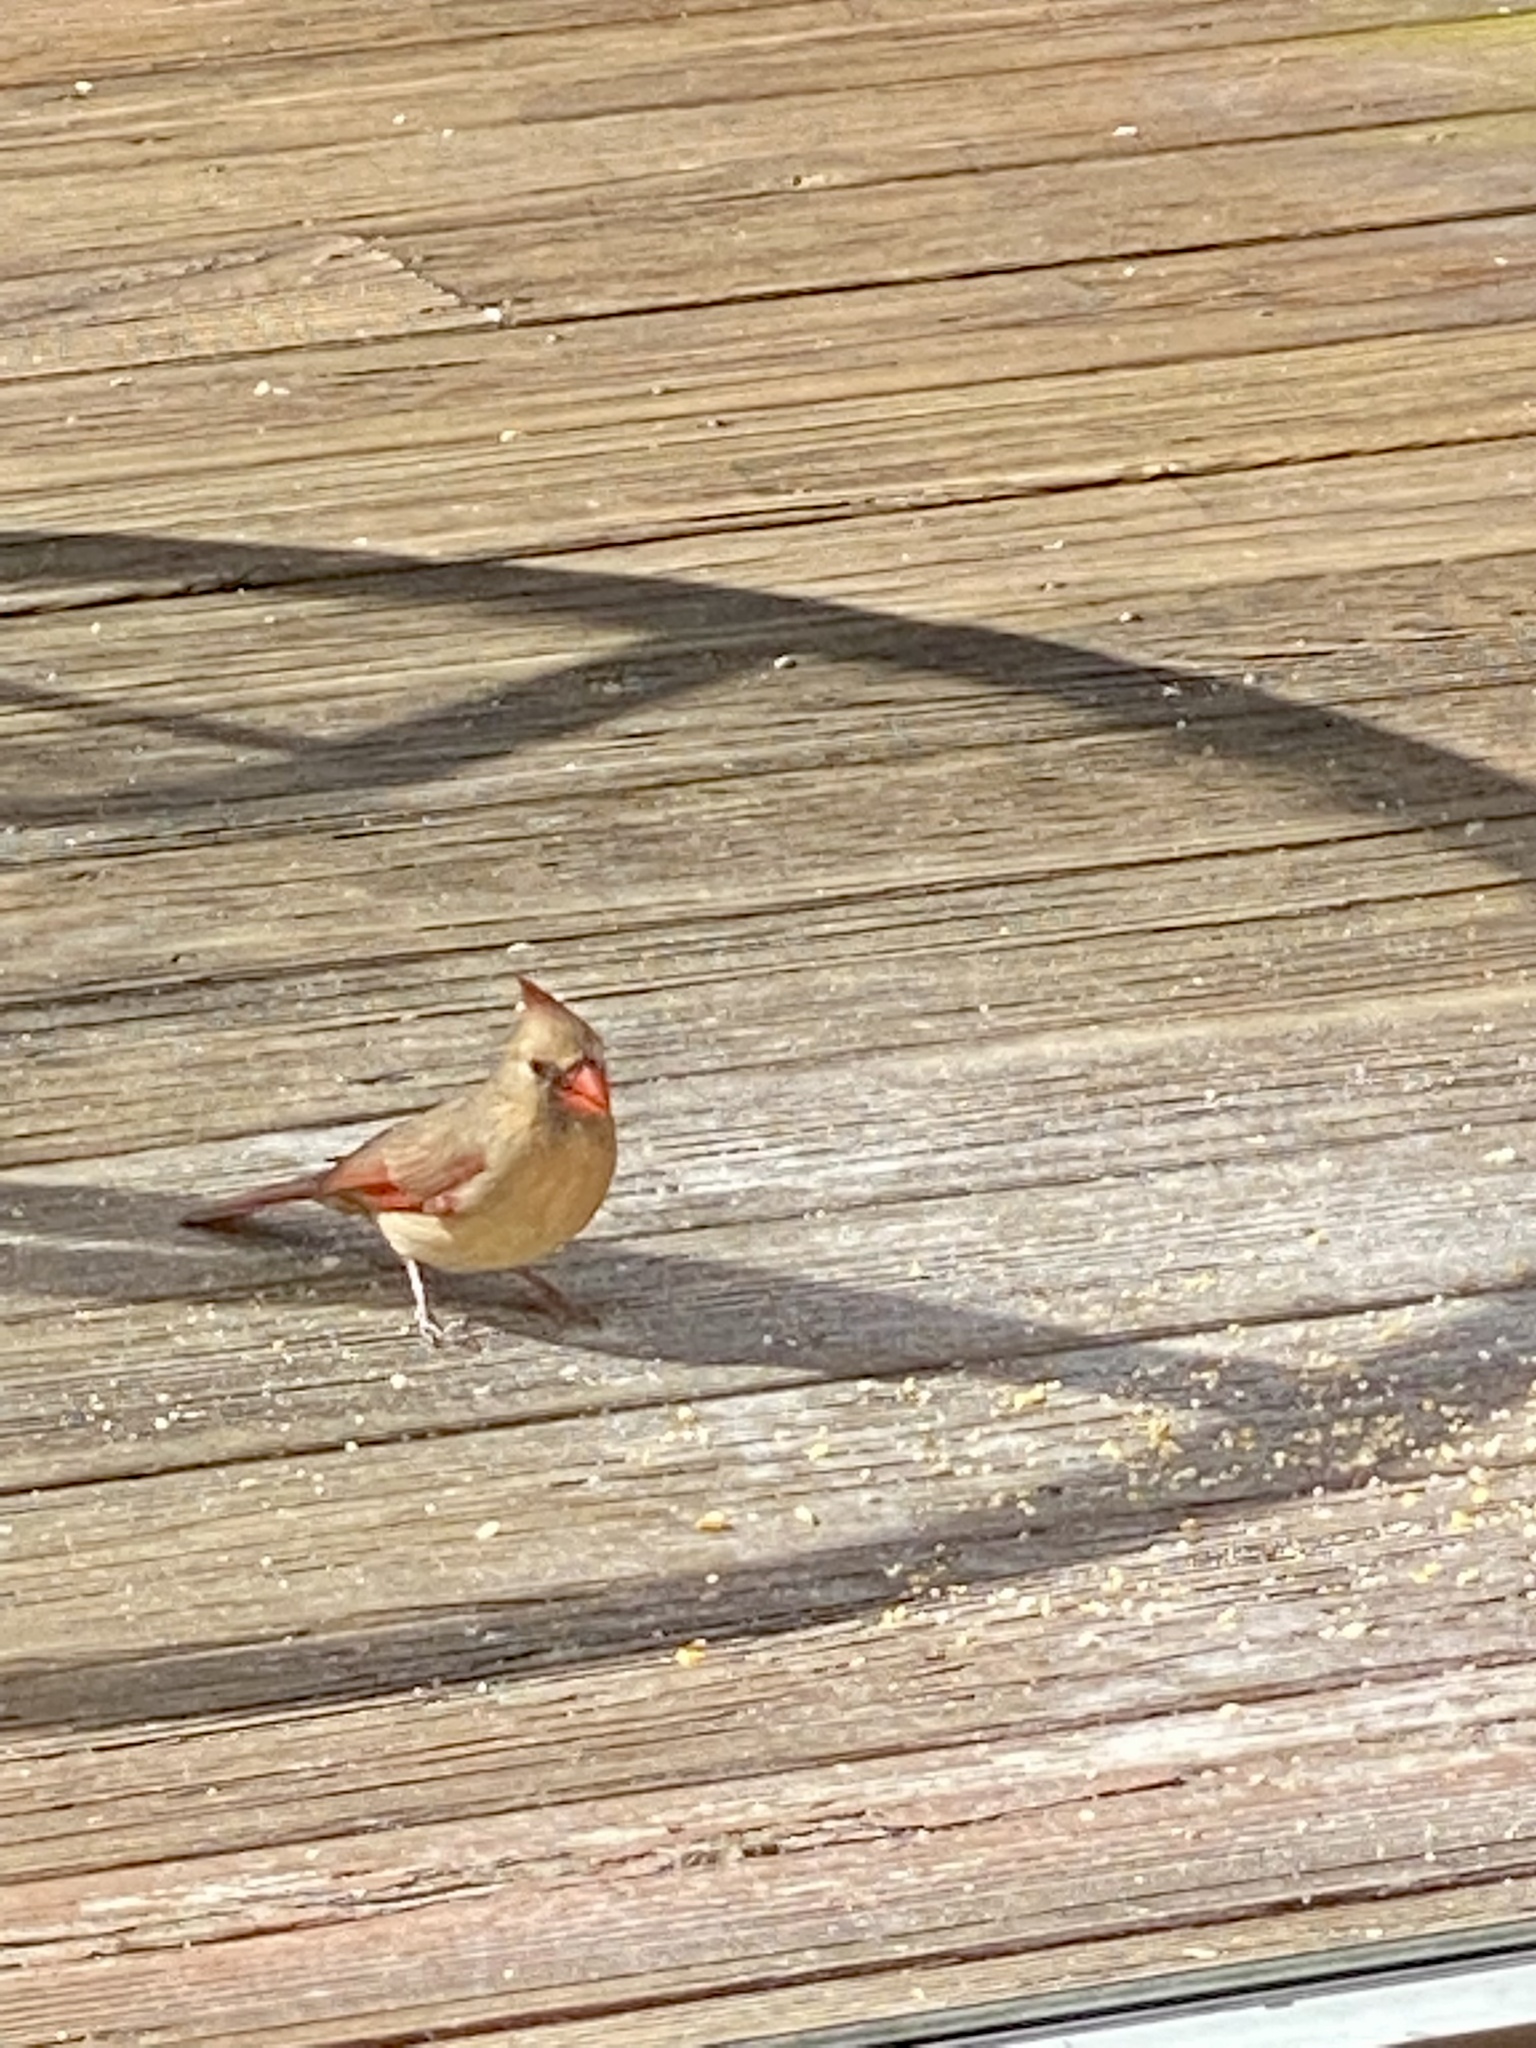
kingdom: Animalia
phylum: Chordata
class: Aves
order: Passeriformes
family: Cardinalidae
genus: Cardinalis
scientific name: Cardinalis cardinalis
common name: Northern cardinal
